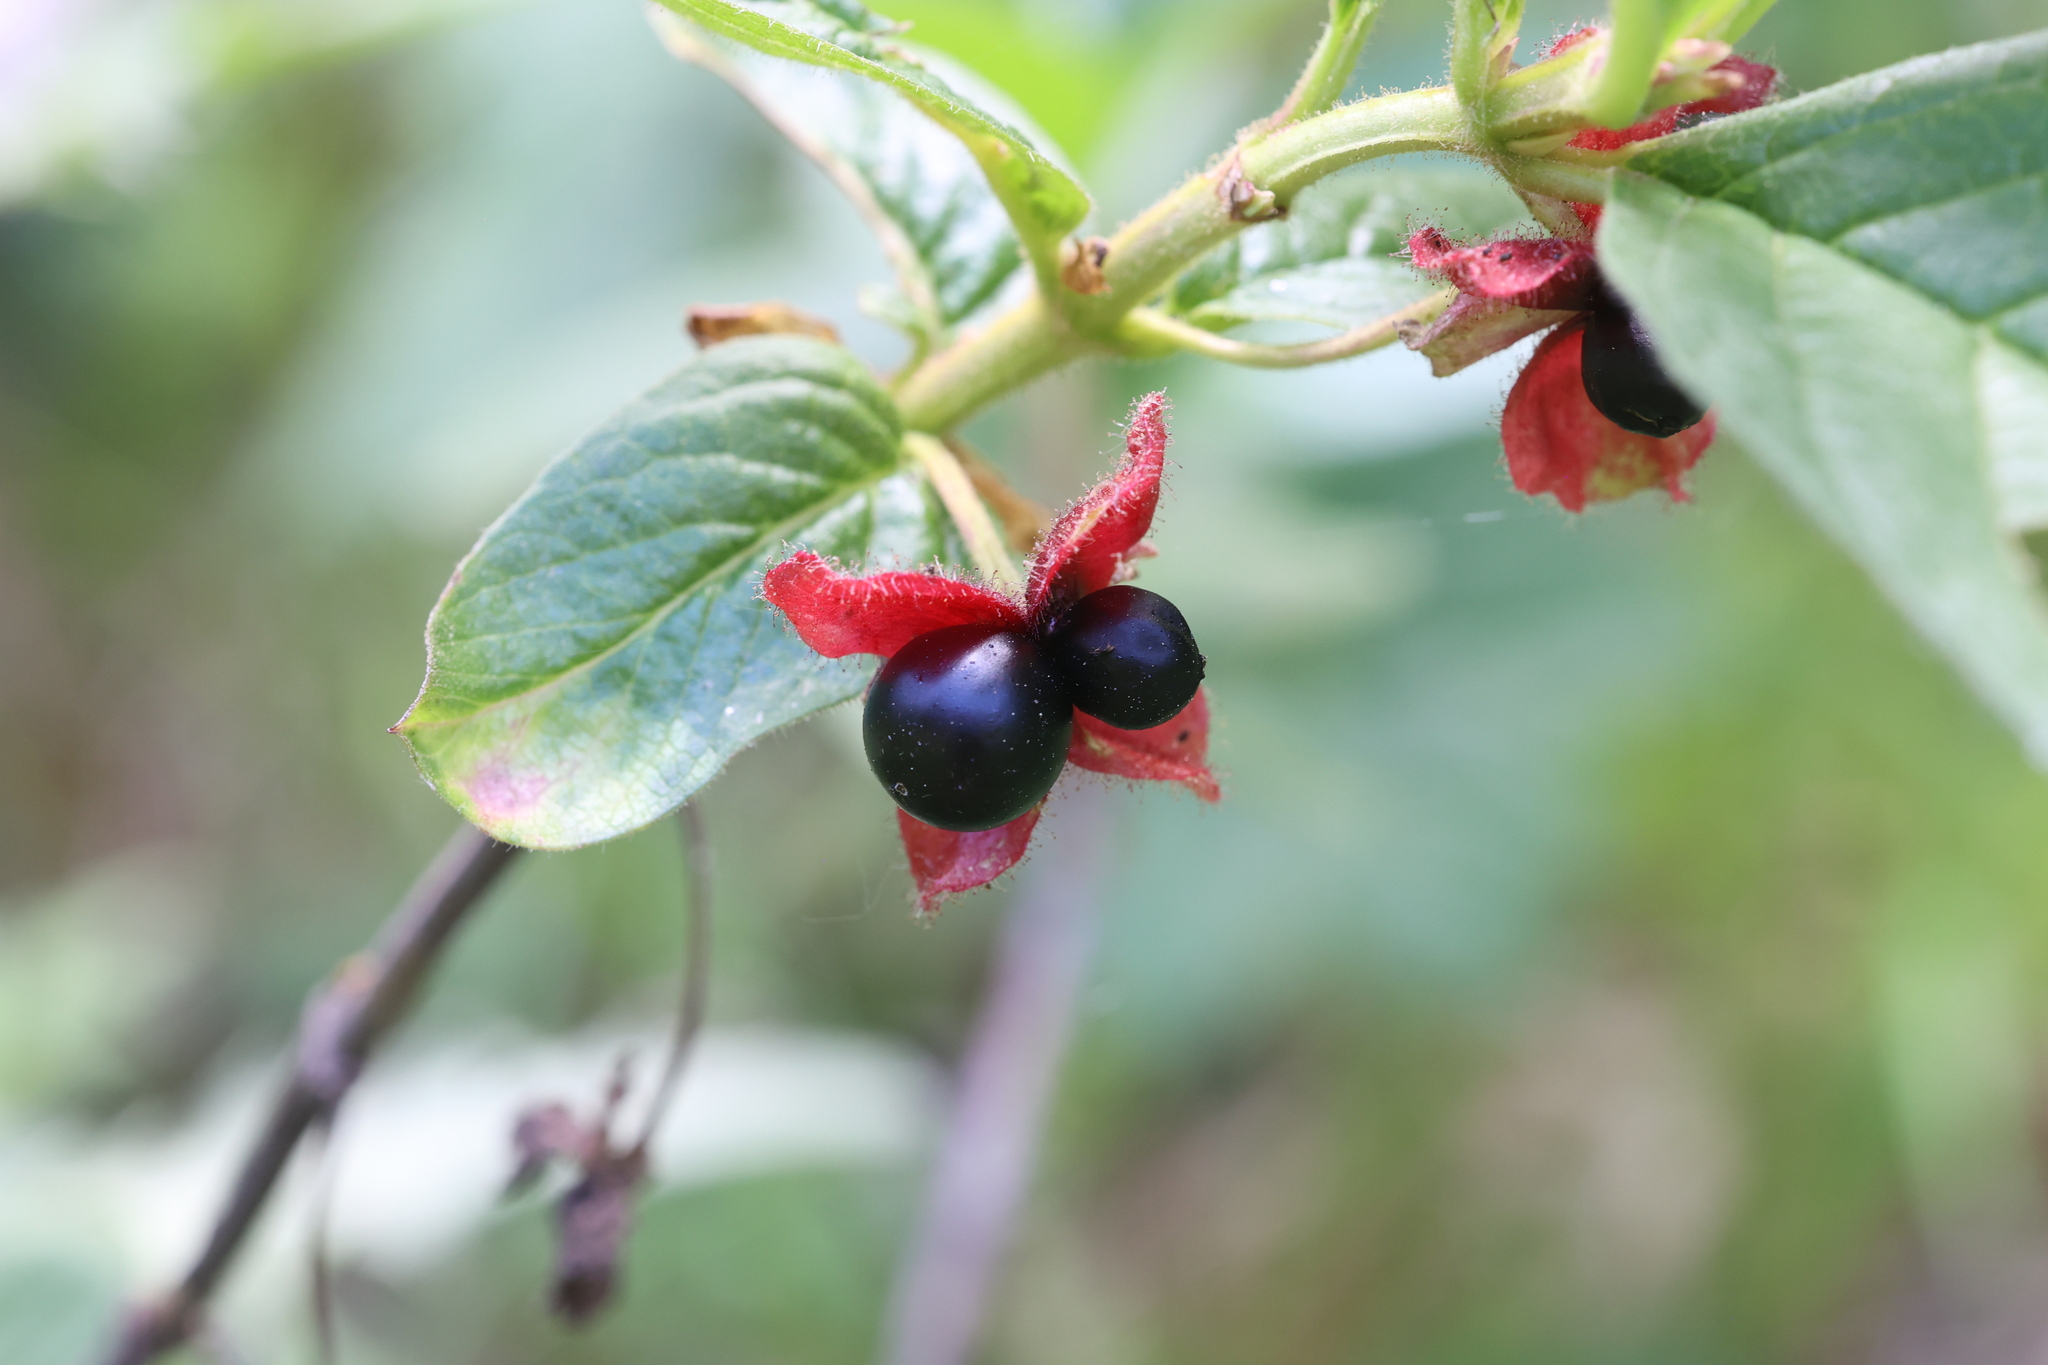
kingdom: Plantae
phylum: Tracheophyta
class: Magnoliopsida
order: Dipsacales
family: Caprifoliaceae
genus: Lonicera
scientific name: Lonicera involucrata
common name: Californian honeysuckle
